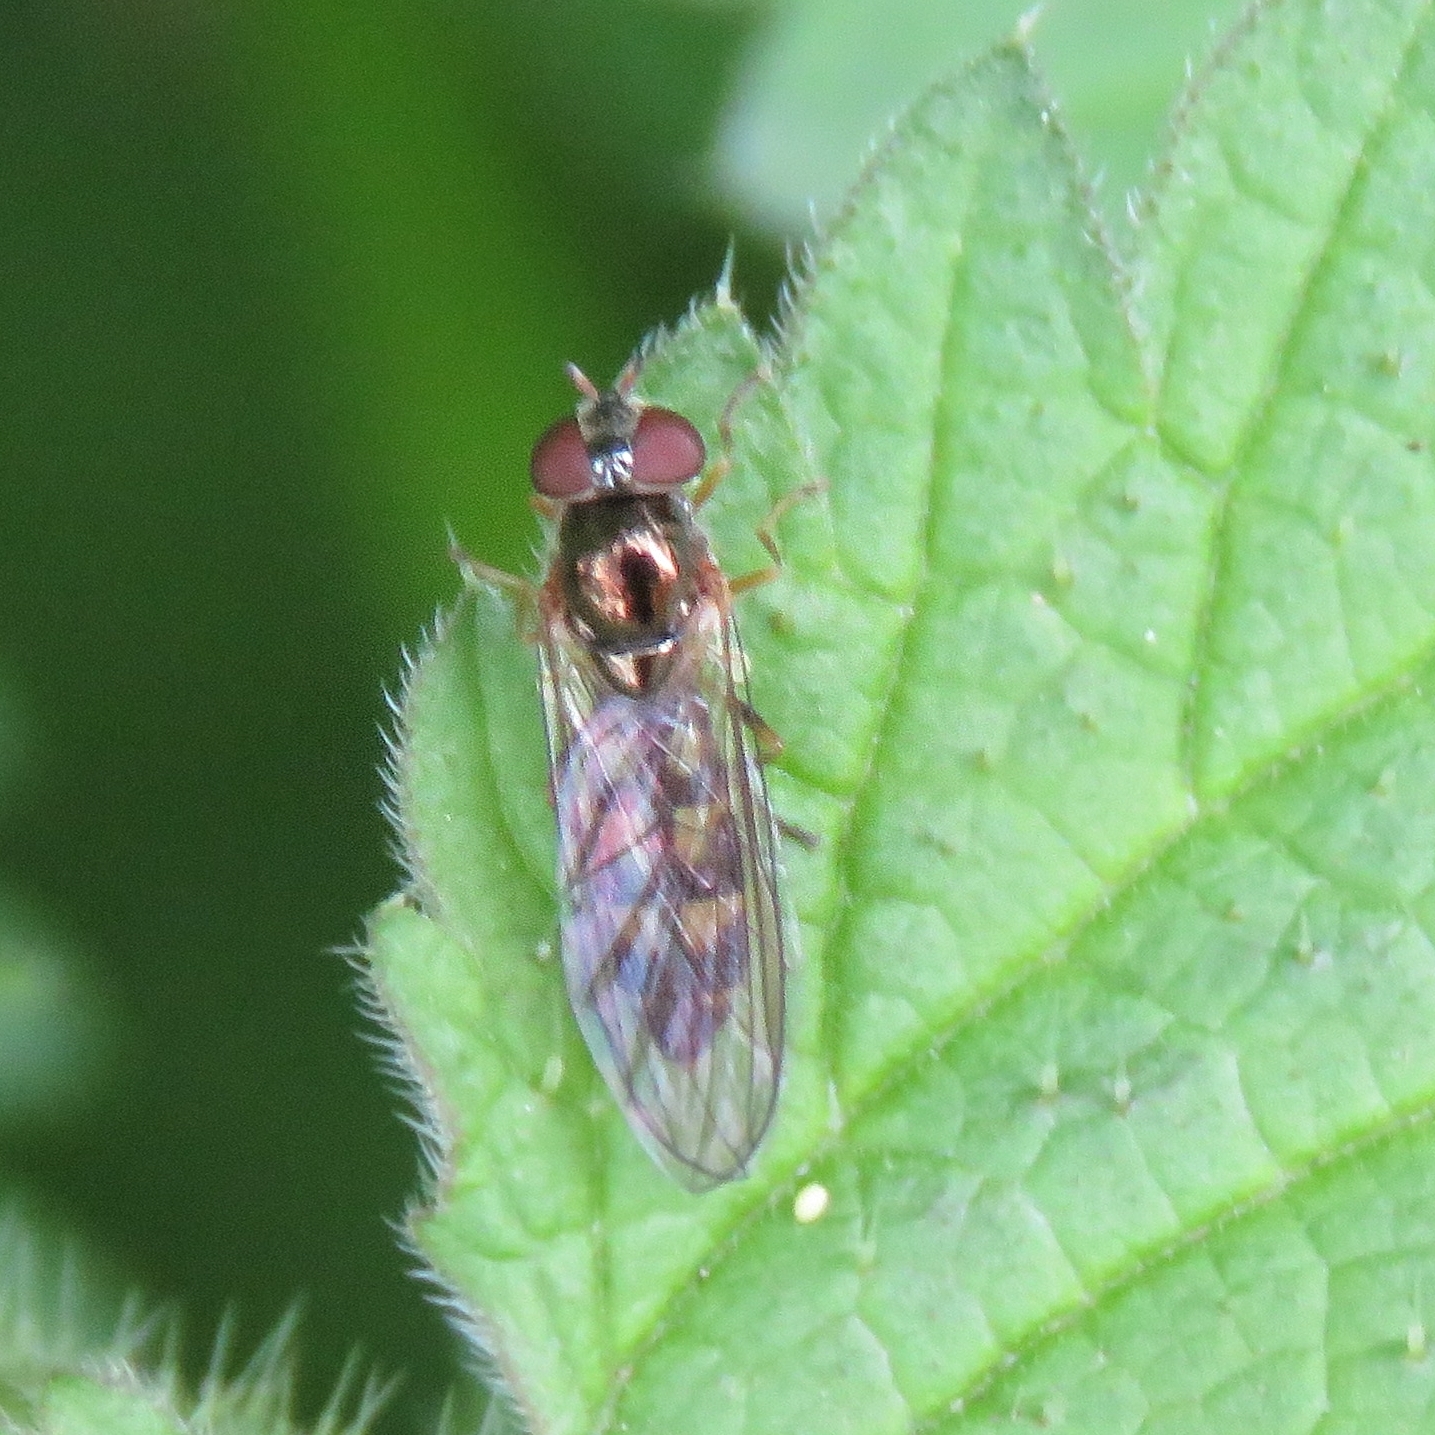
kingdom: Animalia
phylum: Arthropoda
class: Insecta
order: Diptera
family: Syrphidae
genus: Melanostoma
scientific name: Melanostoma scalare
